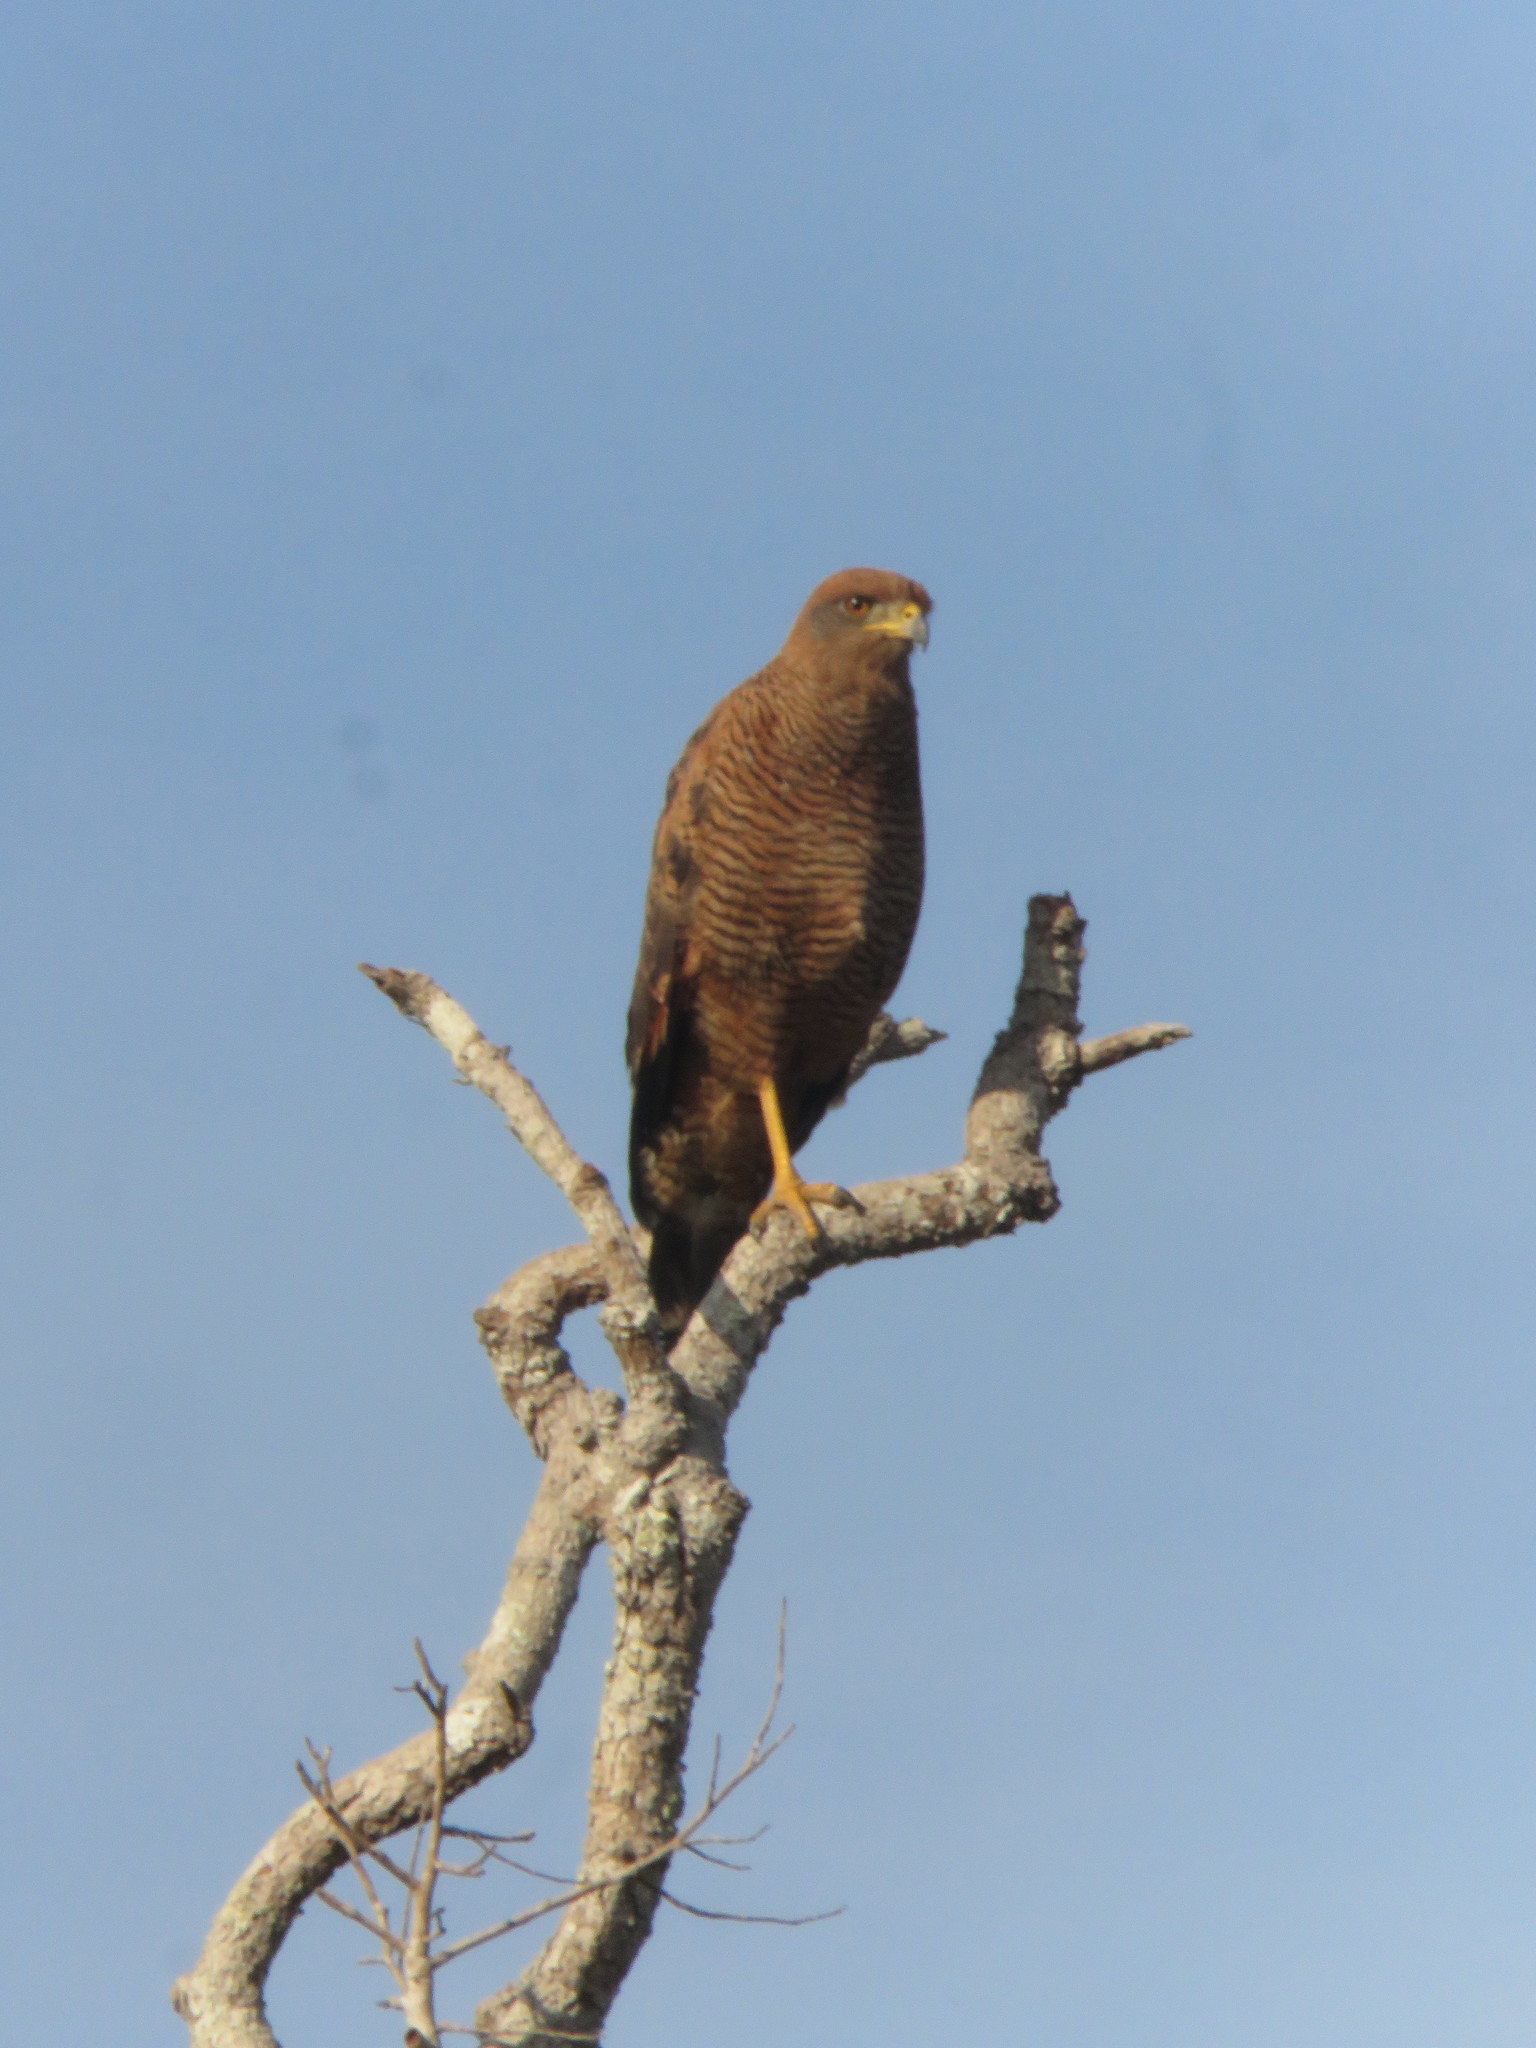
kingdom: Animalia
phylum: Chordata
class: Aves
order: Accipitriformes
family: Accipitridae
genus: Buteogallus
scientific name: Buteogallus meridionalis
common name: Savanna hawk
